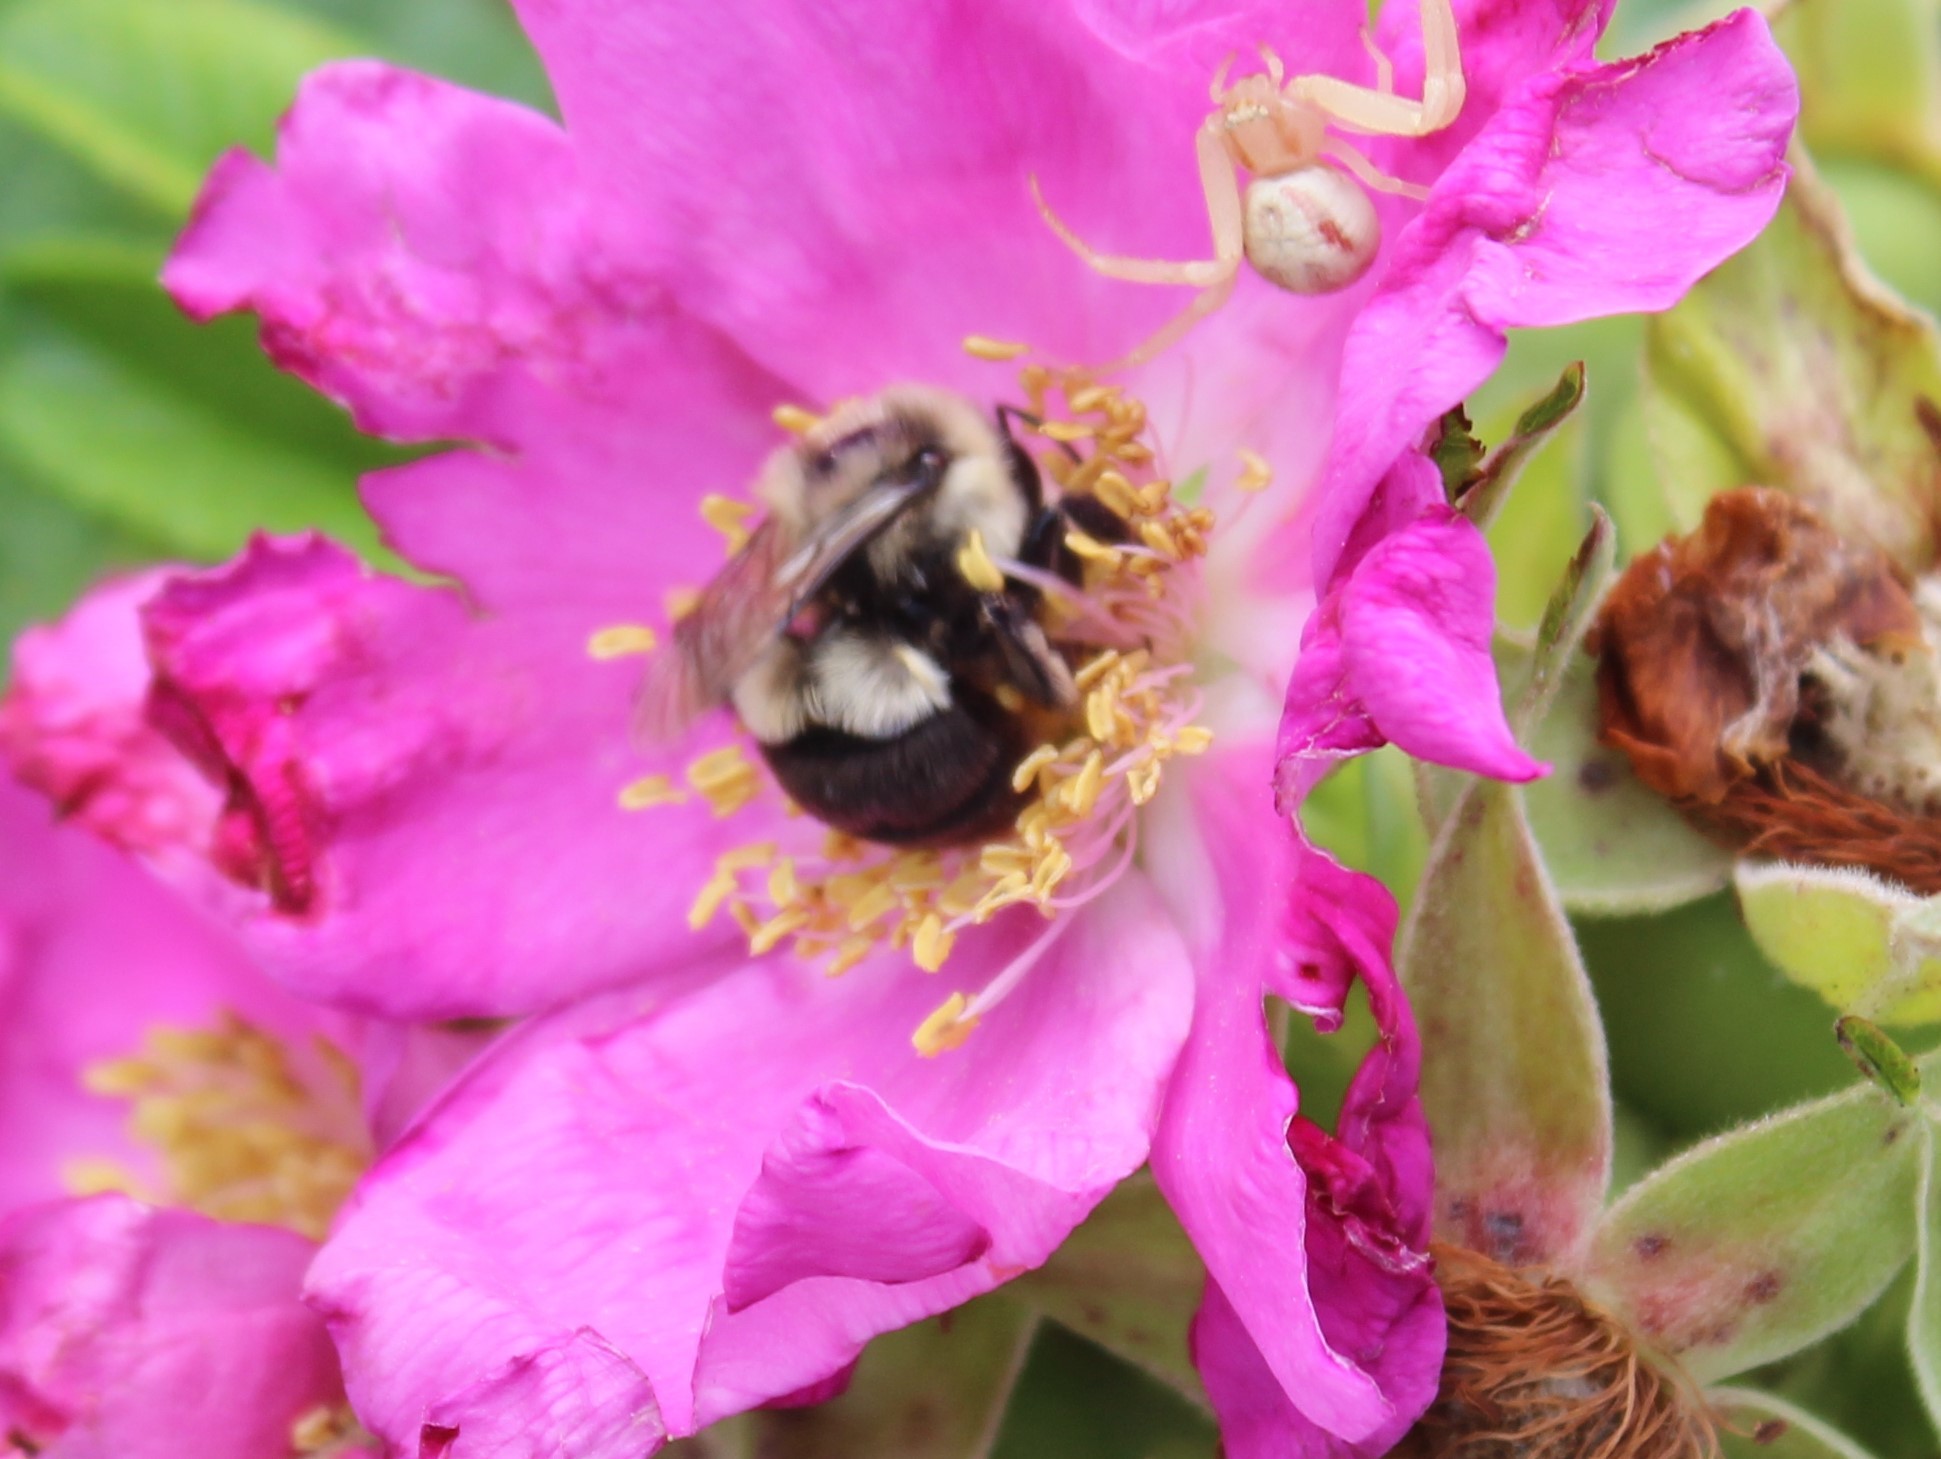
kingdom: Animalia
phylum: Arthropoda
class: Insecta
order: Hymenoptera
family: Apidae
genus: Bombus
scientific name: Bombus impatiens
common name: Common eastern bumble bee
